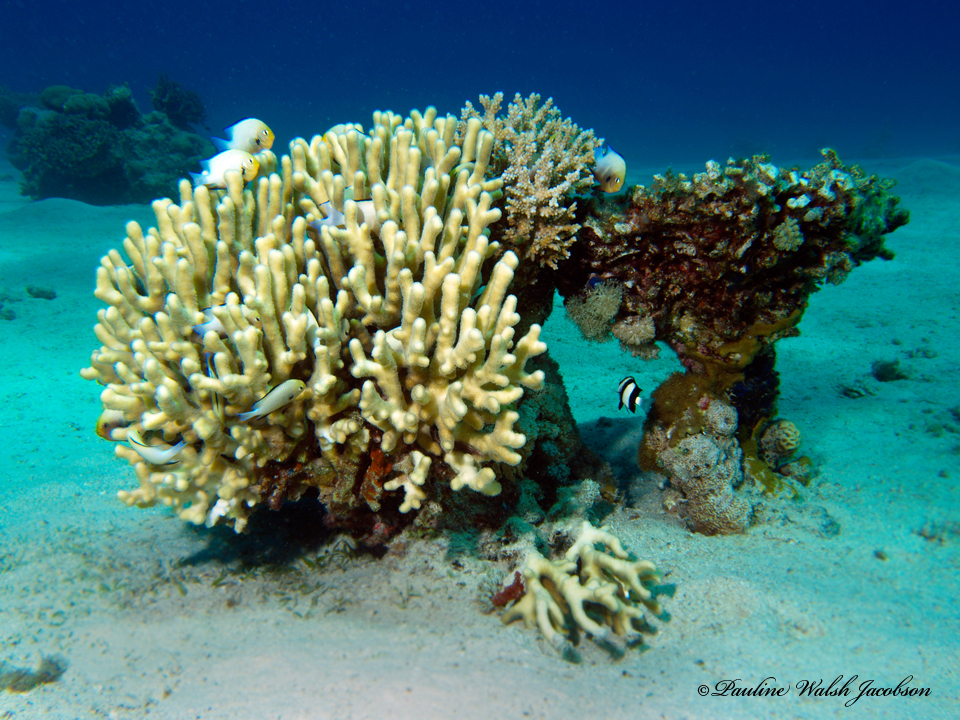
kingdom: Animalia
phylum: Chordata
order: Perciformes
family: Pomacentridae
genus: Dascyllus
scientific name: Dascyllus abudafur
